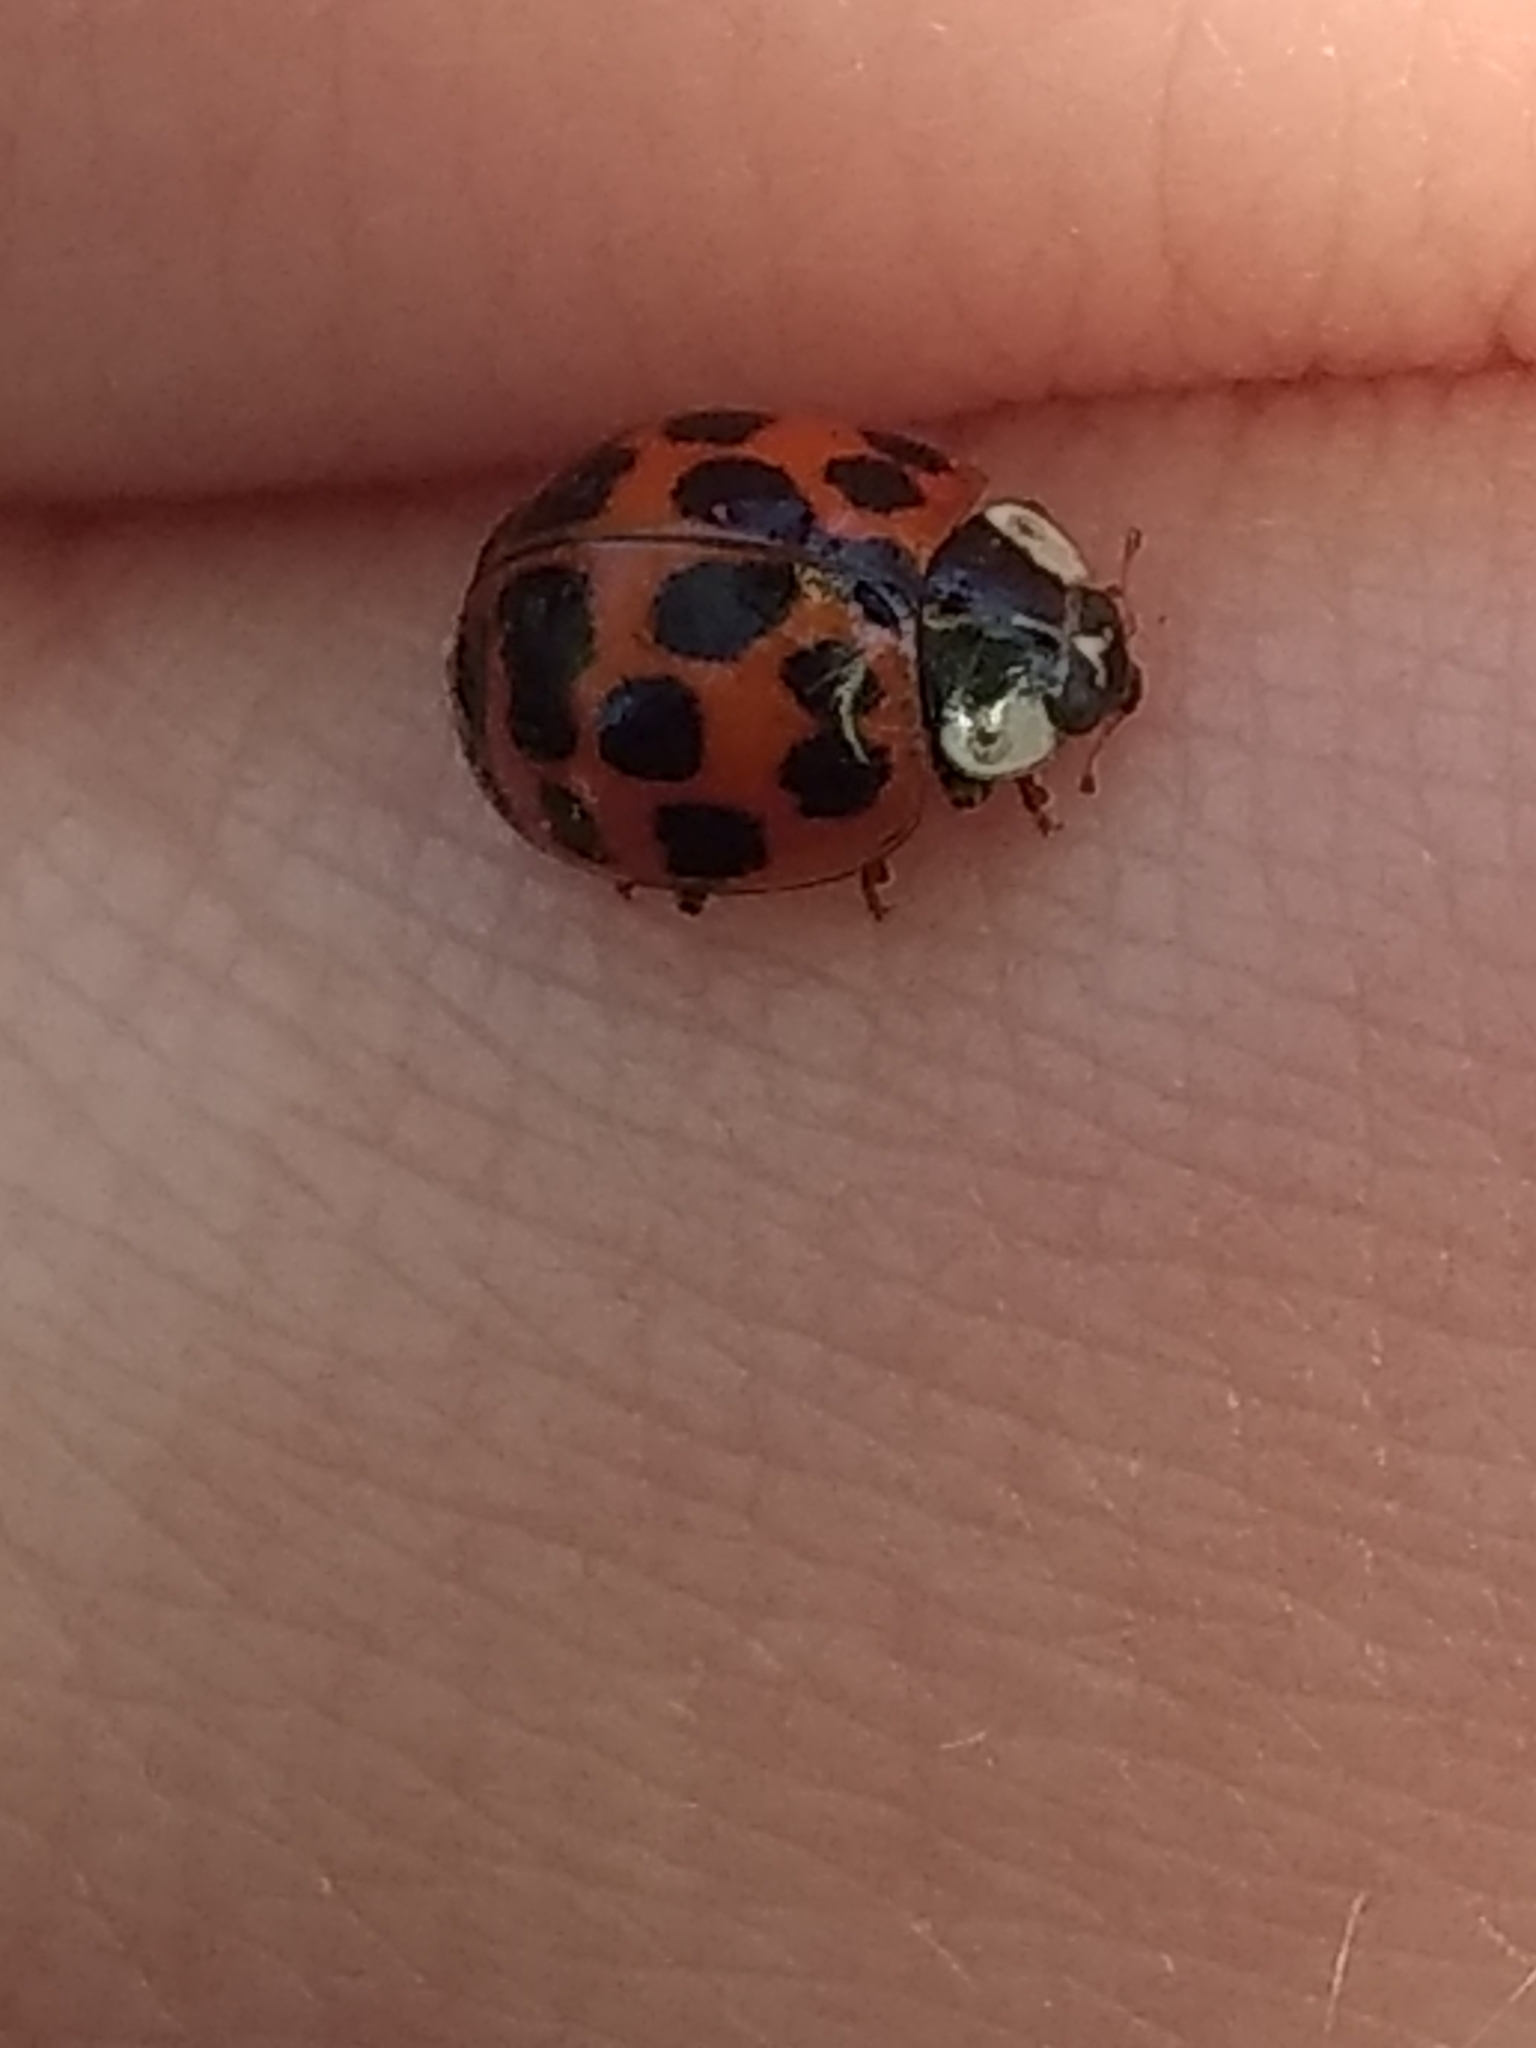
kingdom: Animalia
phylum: Arthropoda
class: Insecta
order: Coleoptera
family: Coccinellidae
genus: Harmonia
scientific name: Harmonia axyridis
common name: Harlequin ladybird
